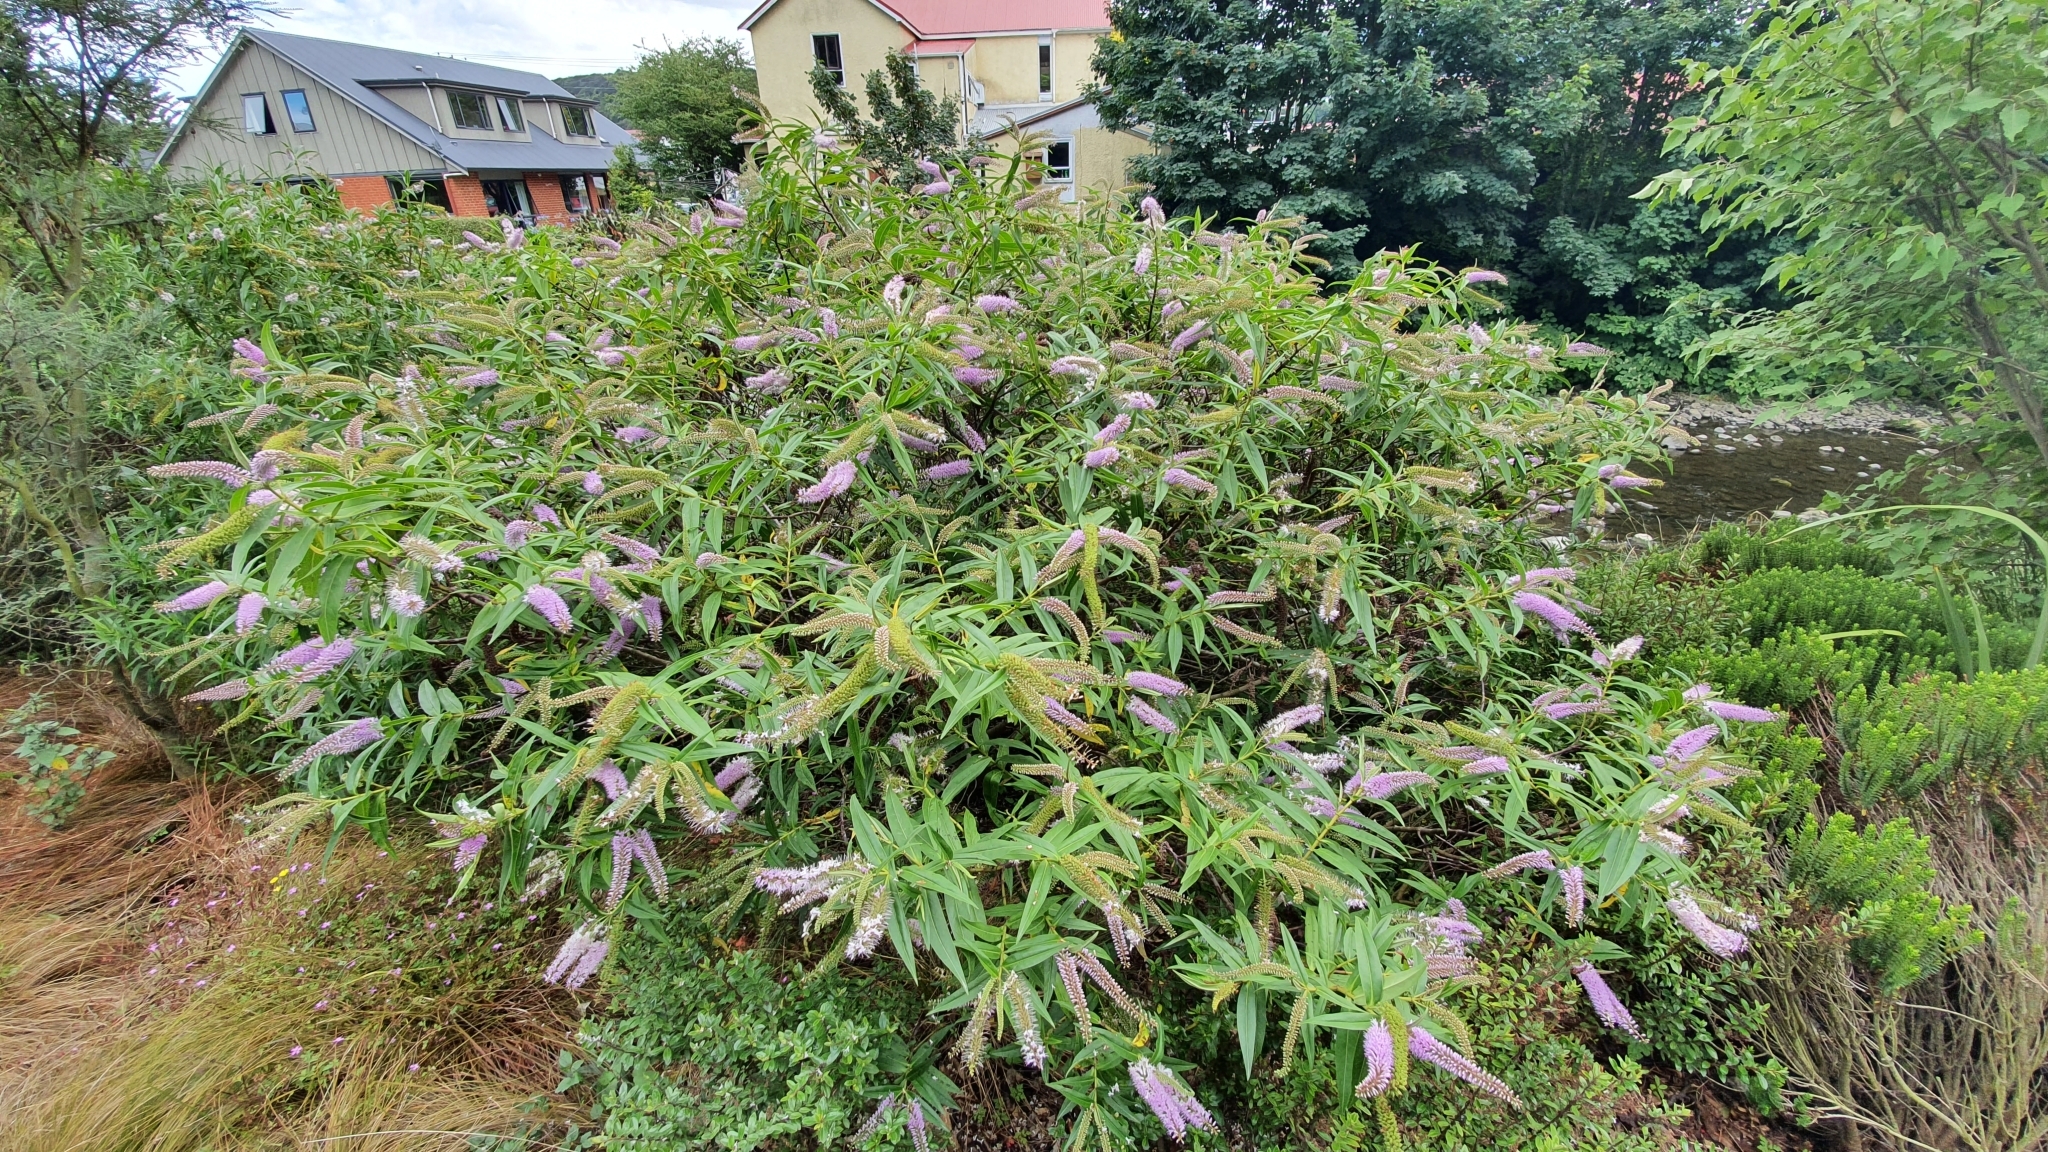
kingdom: Plantae
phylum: Tracheophyta
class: Magnoliopsida
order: Lamiales
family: Plantaginaceae
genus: Veronica
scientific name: Veronica salicifolia
